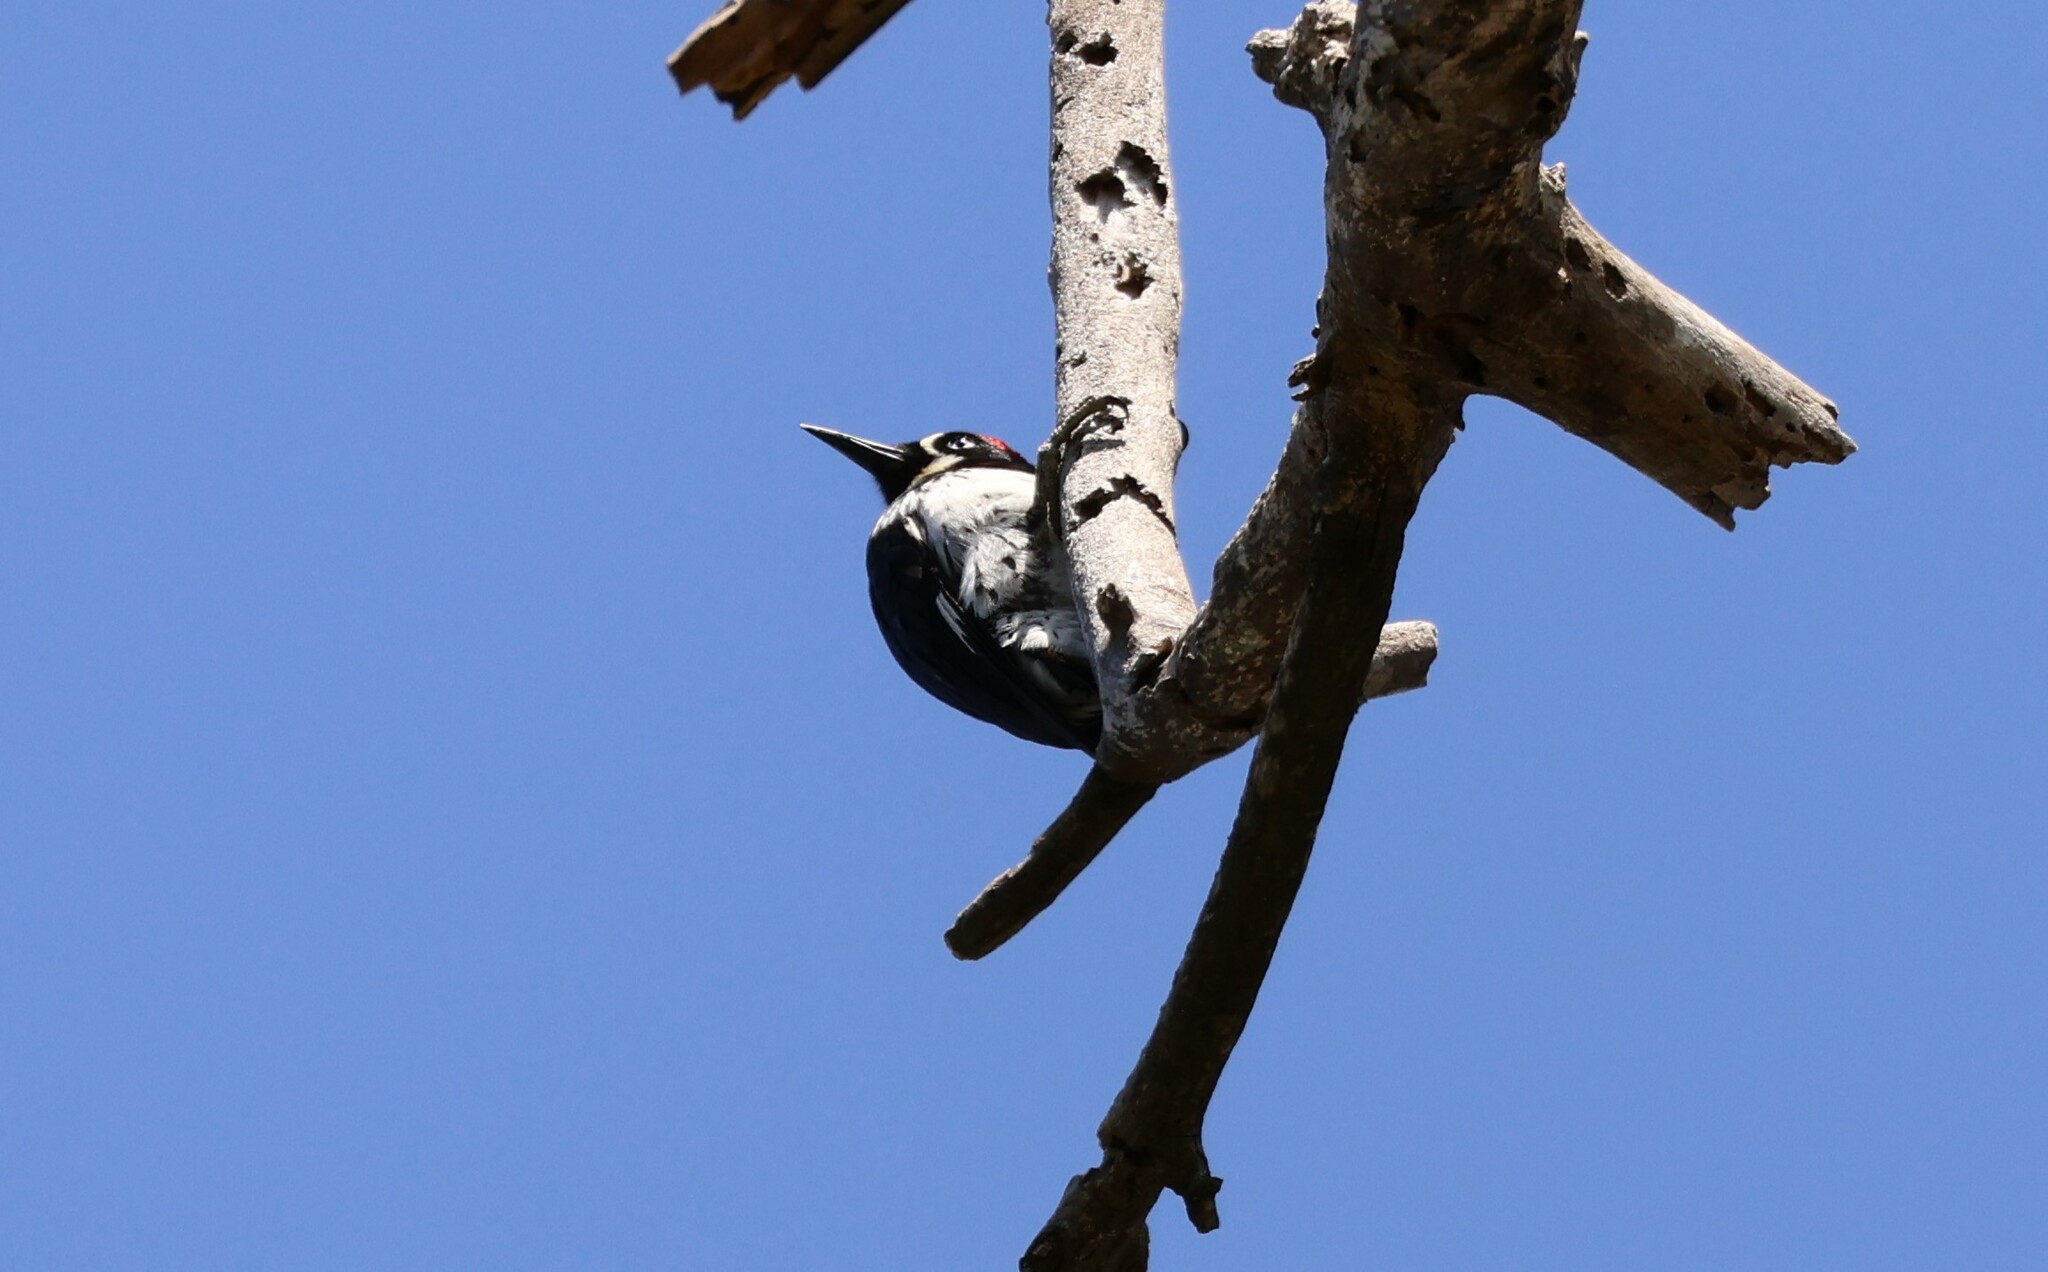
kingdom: Animalia
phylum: Chordata
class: Aves
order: Piciformes
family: Picidae
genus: Melanerpes
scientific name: Melanerpes formicivorus
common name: Acorn woodpecker
